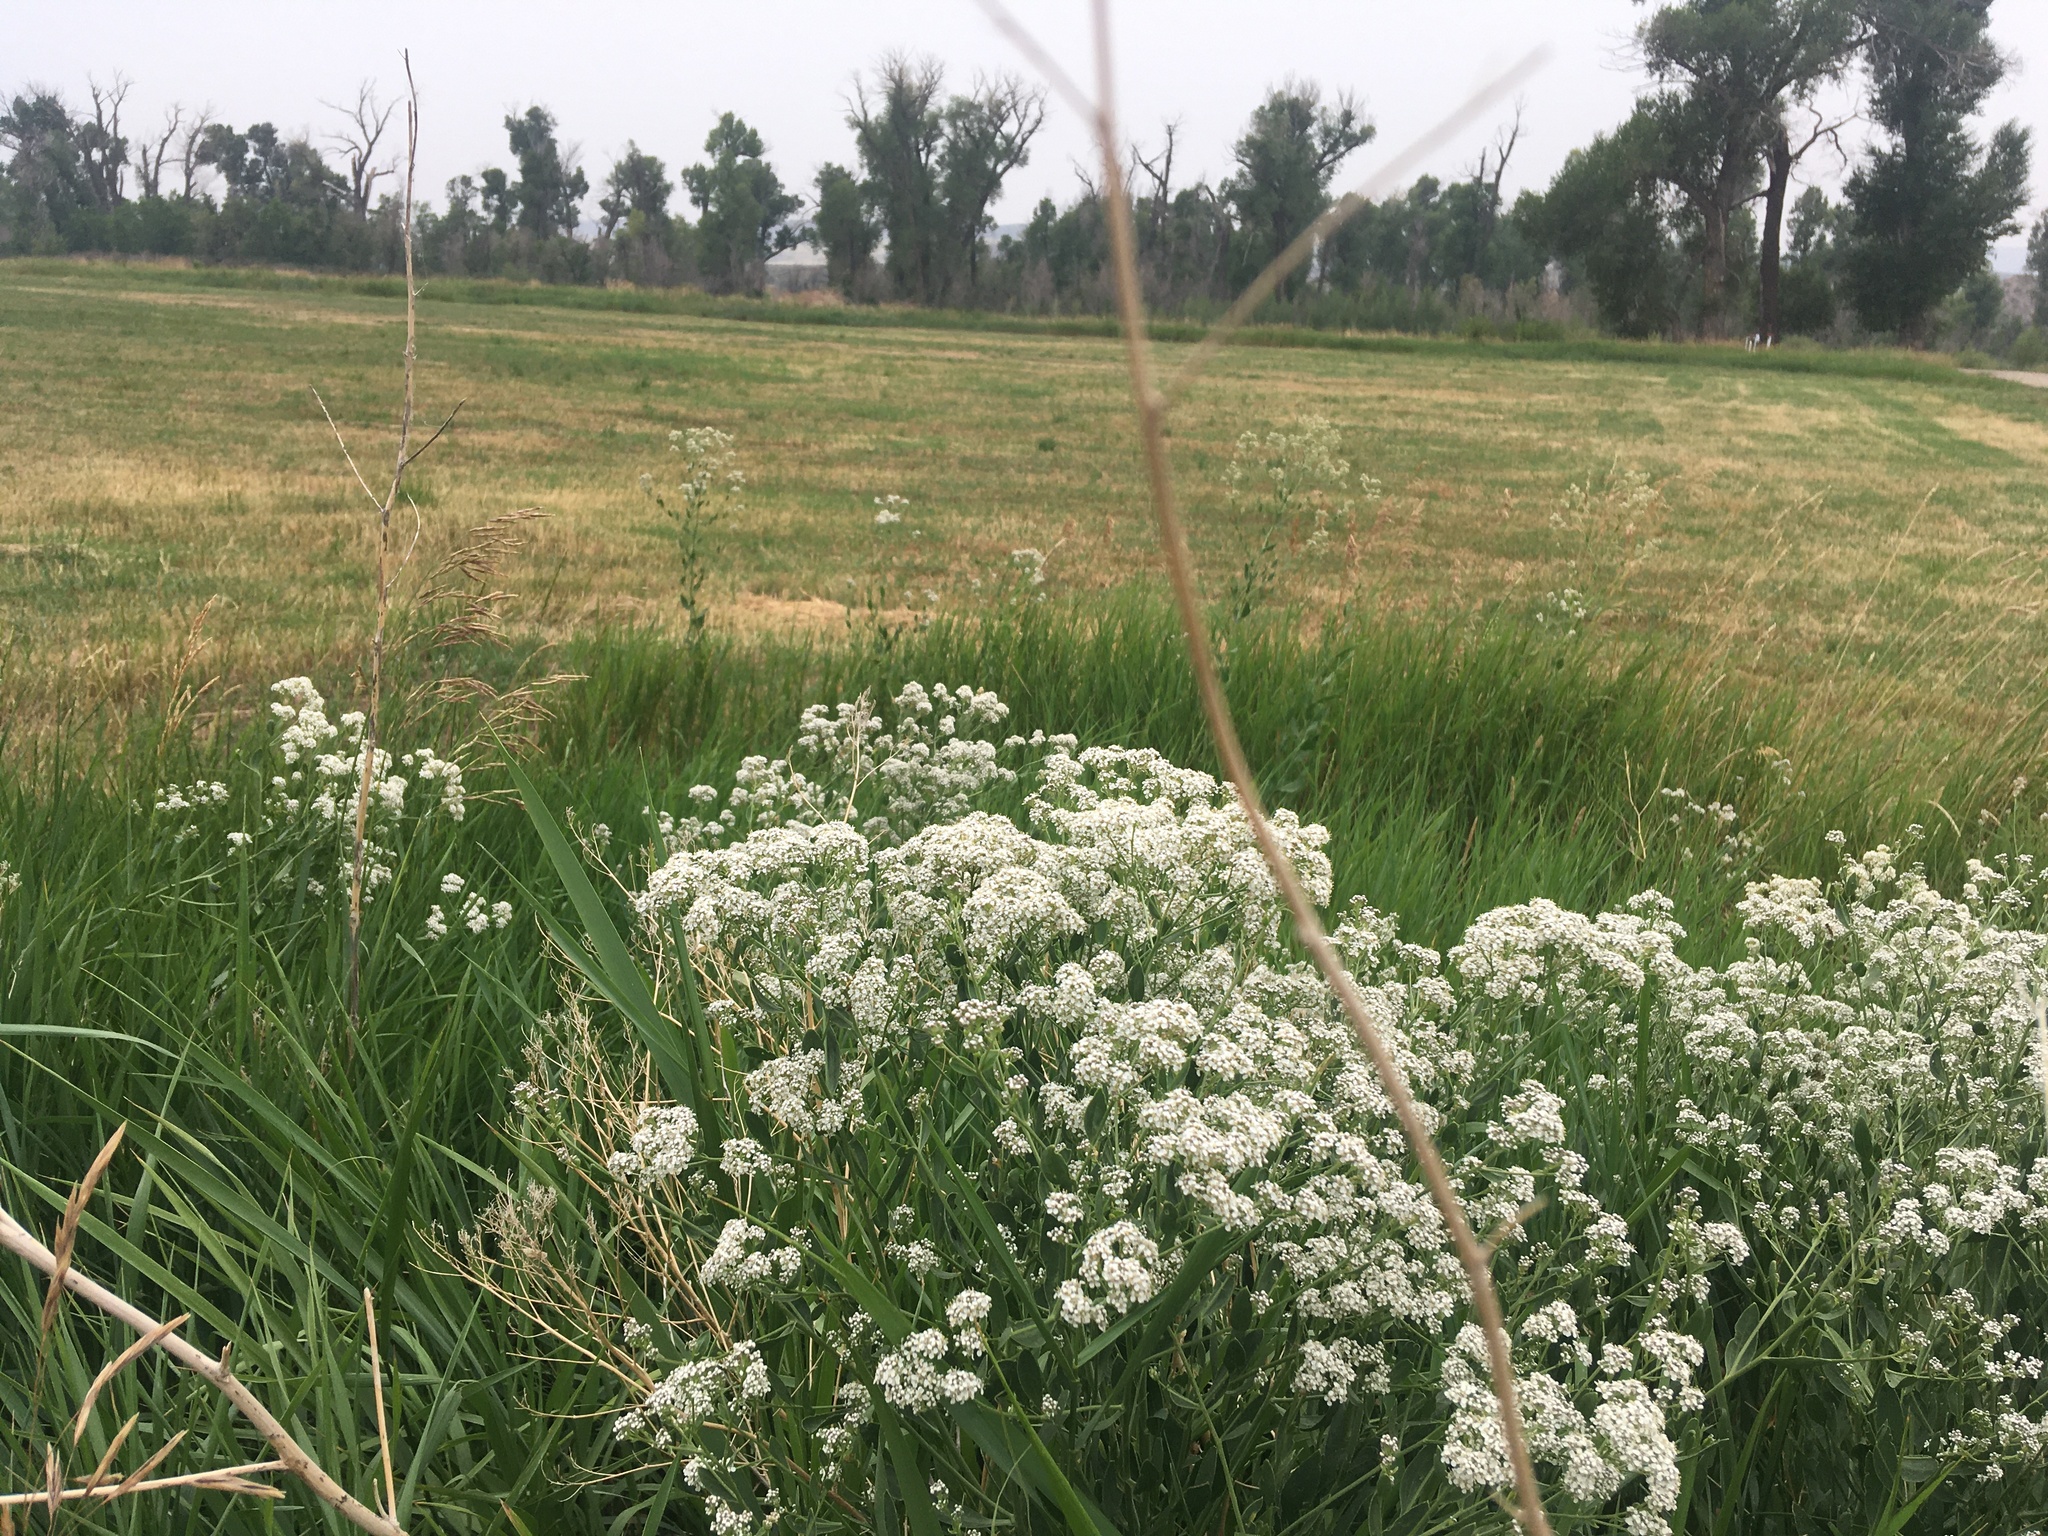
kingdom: Plantae
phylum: Tracheophyta
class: Magnoliopsida
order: Brassicales
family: Brassicaceae
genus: Lepidium
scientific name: Lepidium latifolium
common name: Dittander
